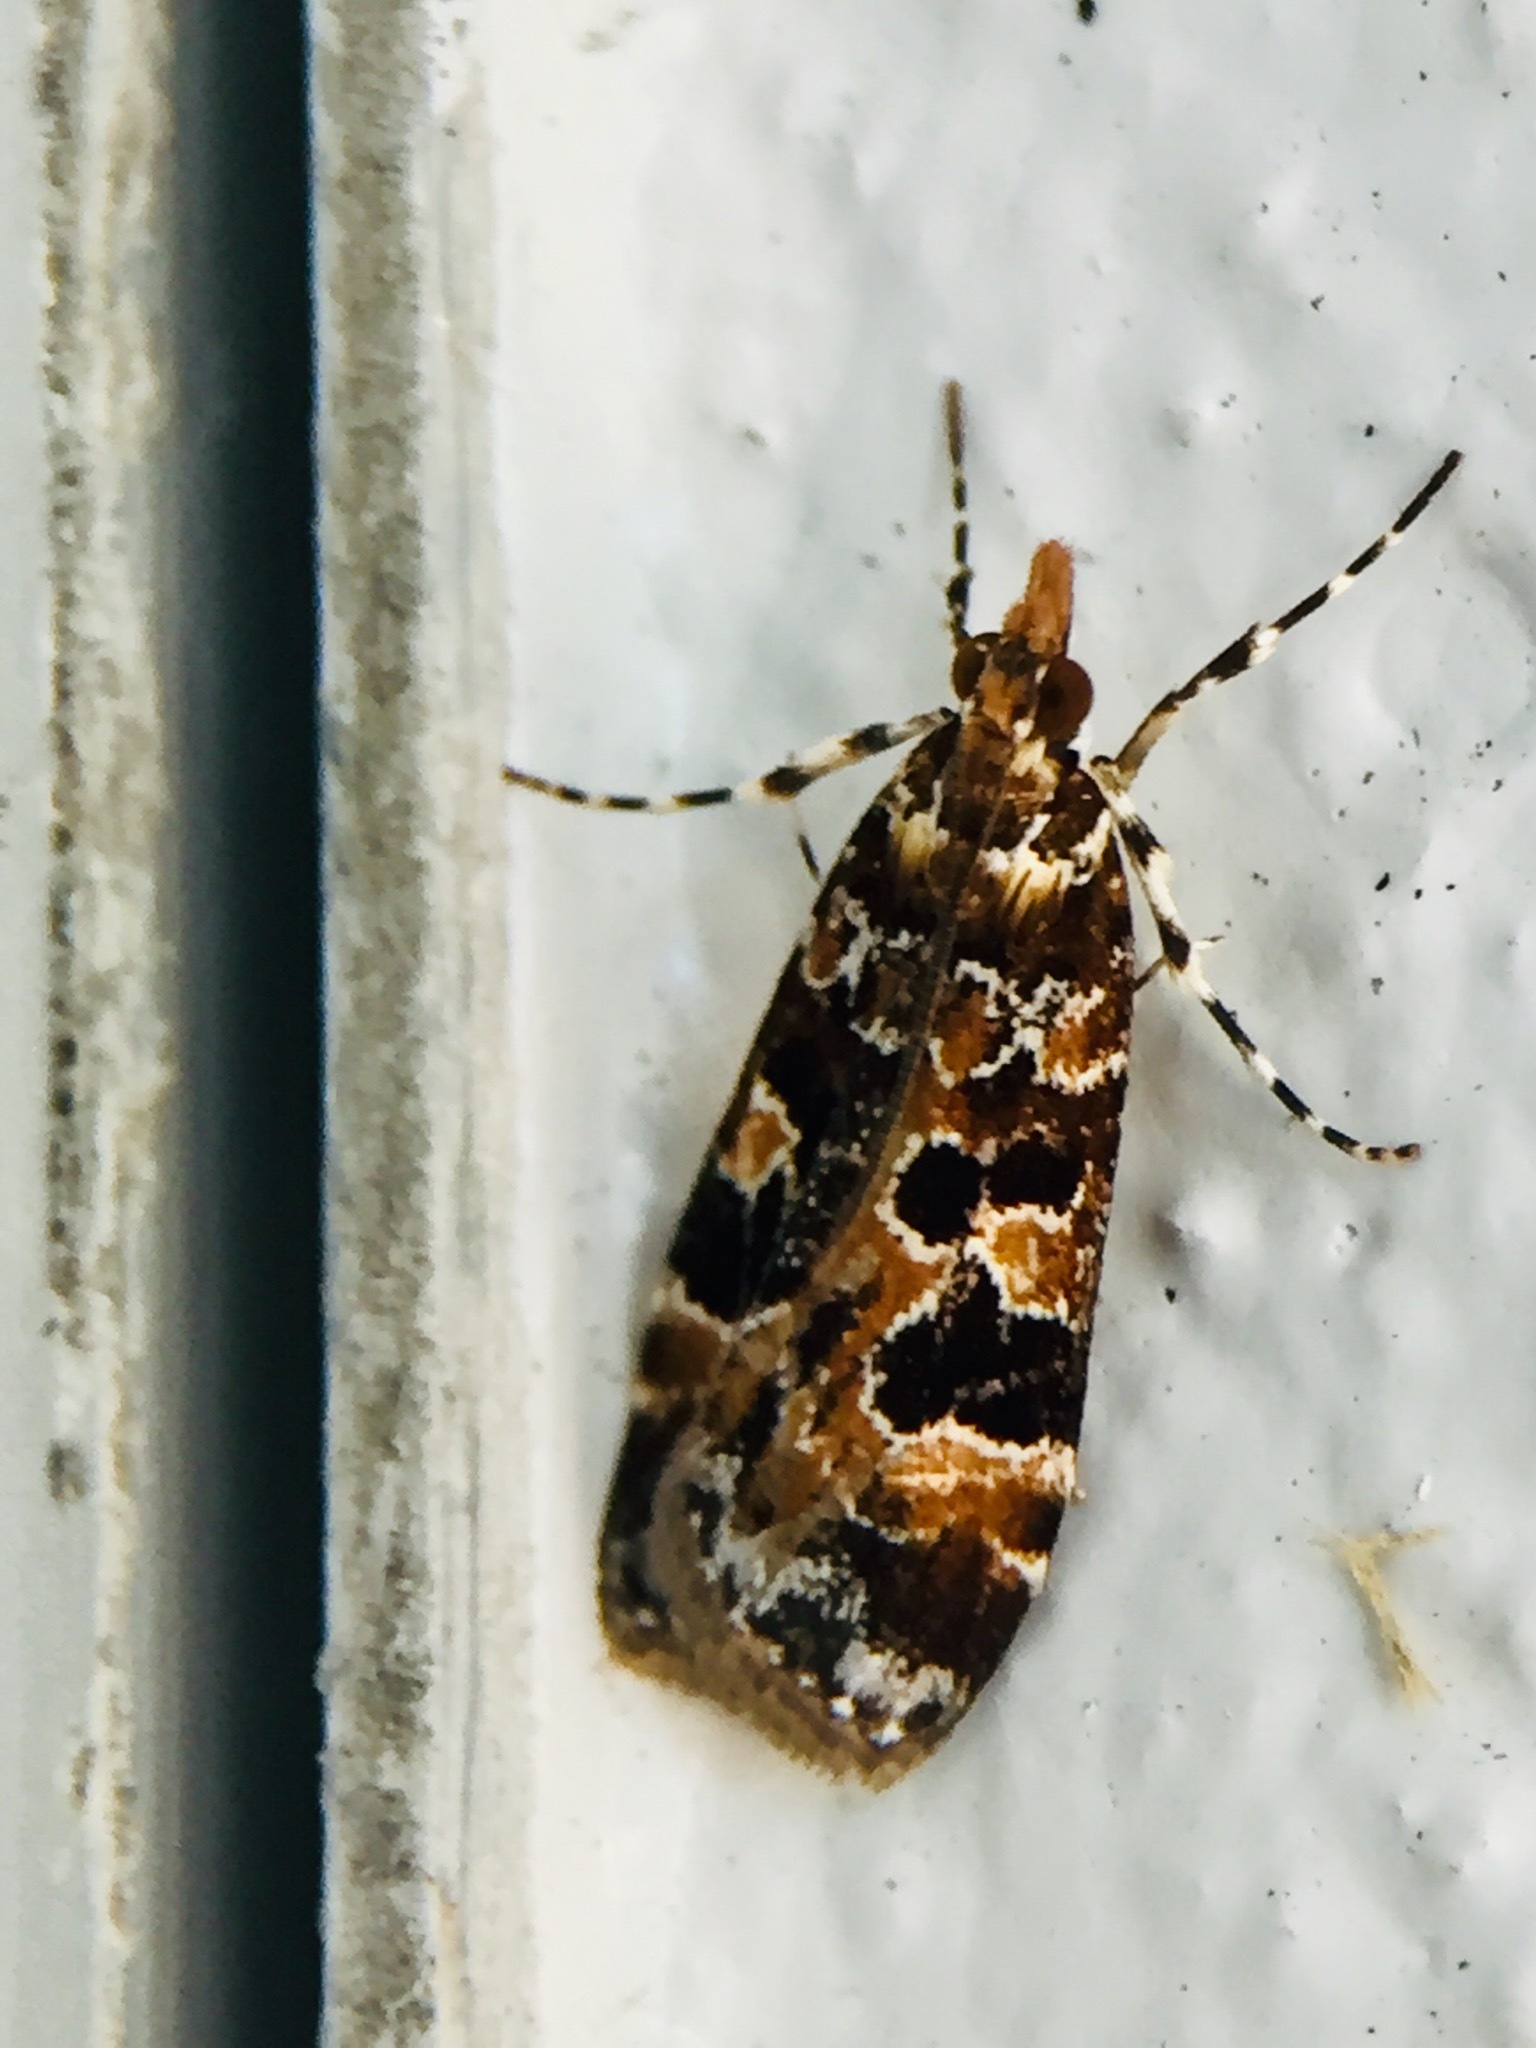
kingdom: Animalia
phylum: Arthropoda
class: Insecta
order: Lepidoptera
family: Crambidae
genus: Scoparia
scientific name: Scoparia ustimacula
